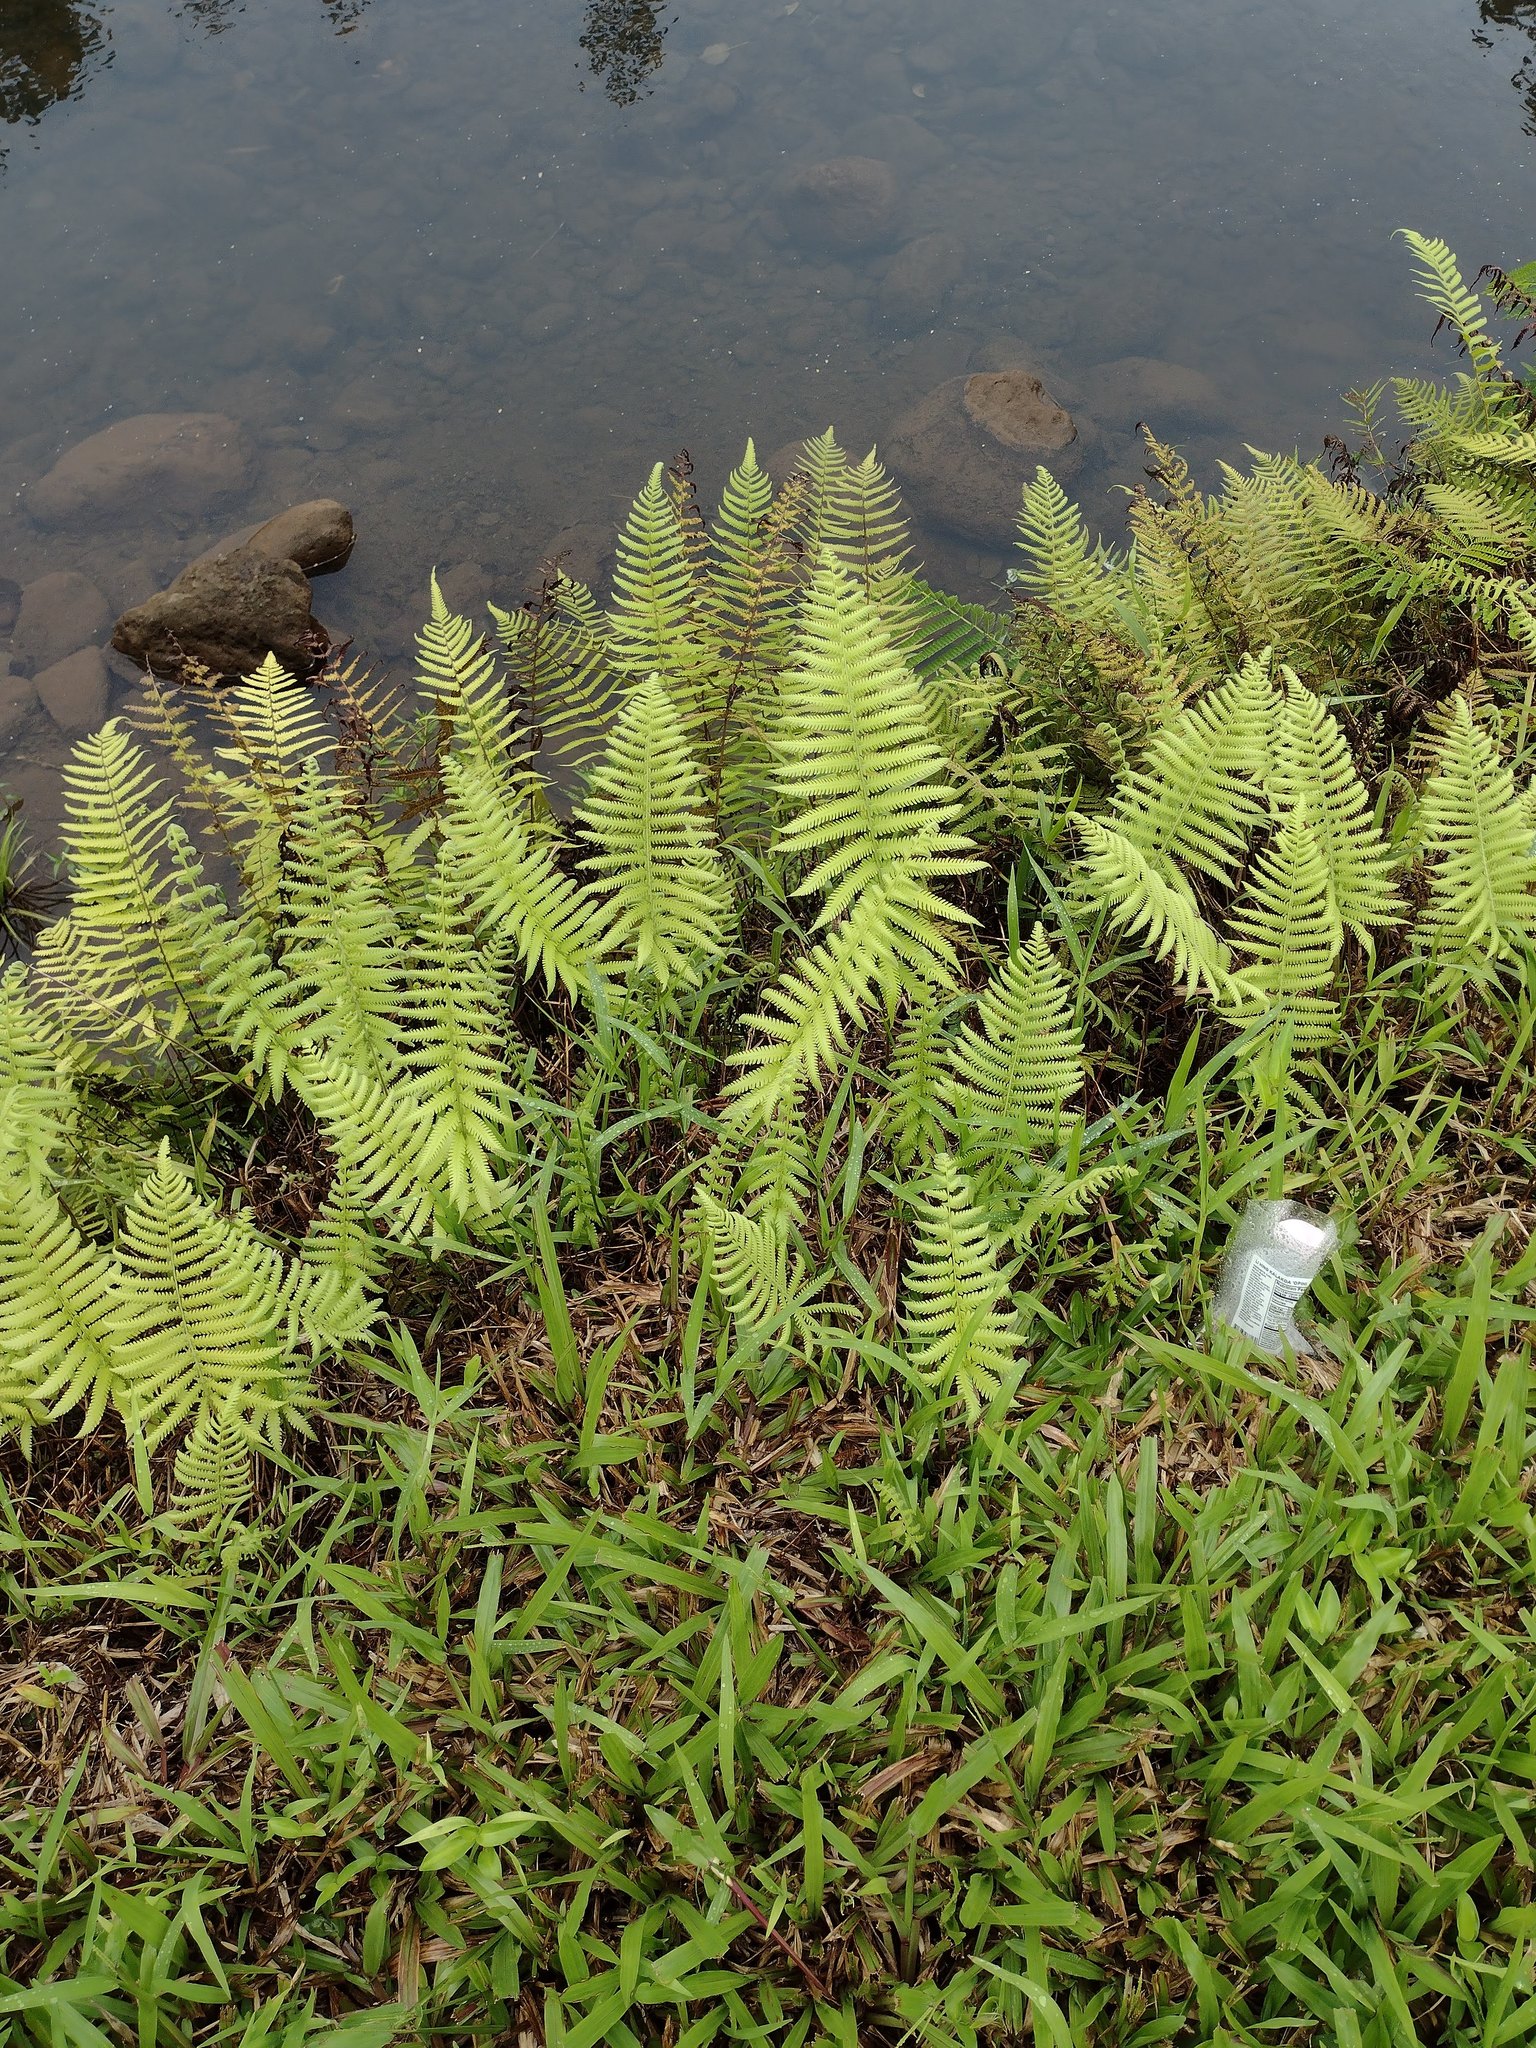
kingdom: Plantae
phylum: Tracheophyta
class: Polypodiopsida
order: Polypodiales
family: Thelypteridaceae
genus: Christella
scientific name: Christella parasitica
